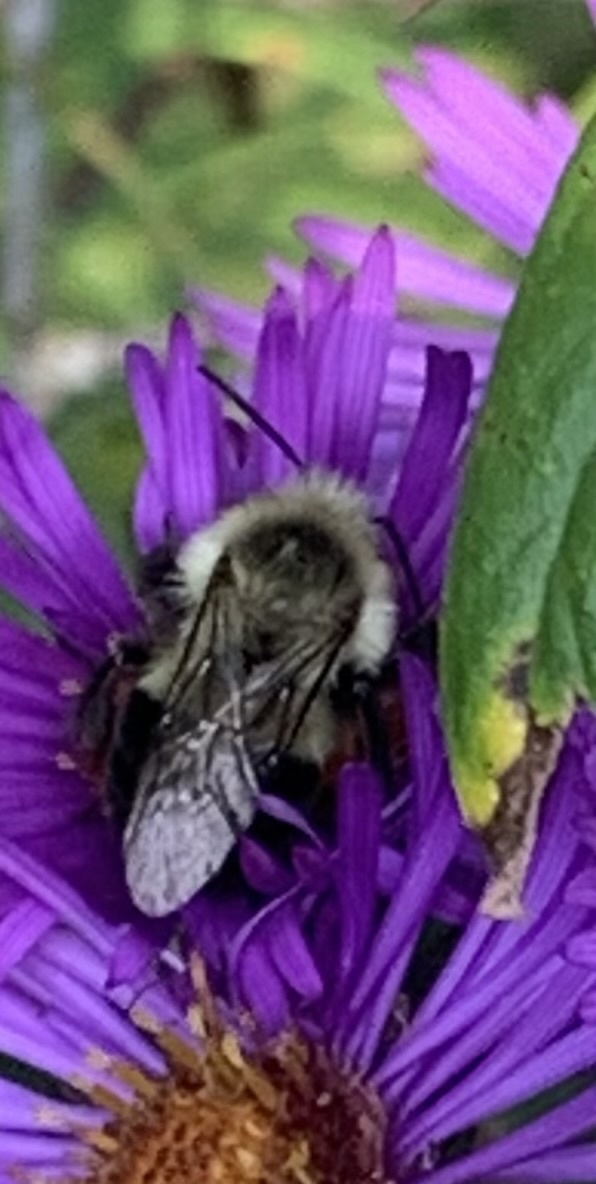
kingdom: Animalia
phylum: Arthropoda
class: Insecta
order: Hymenoptera
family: Apidae
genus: Bombus
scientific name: Bombus impatiens
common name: Common eastern bumble bee
